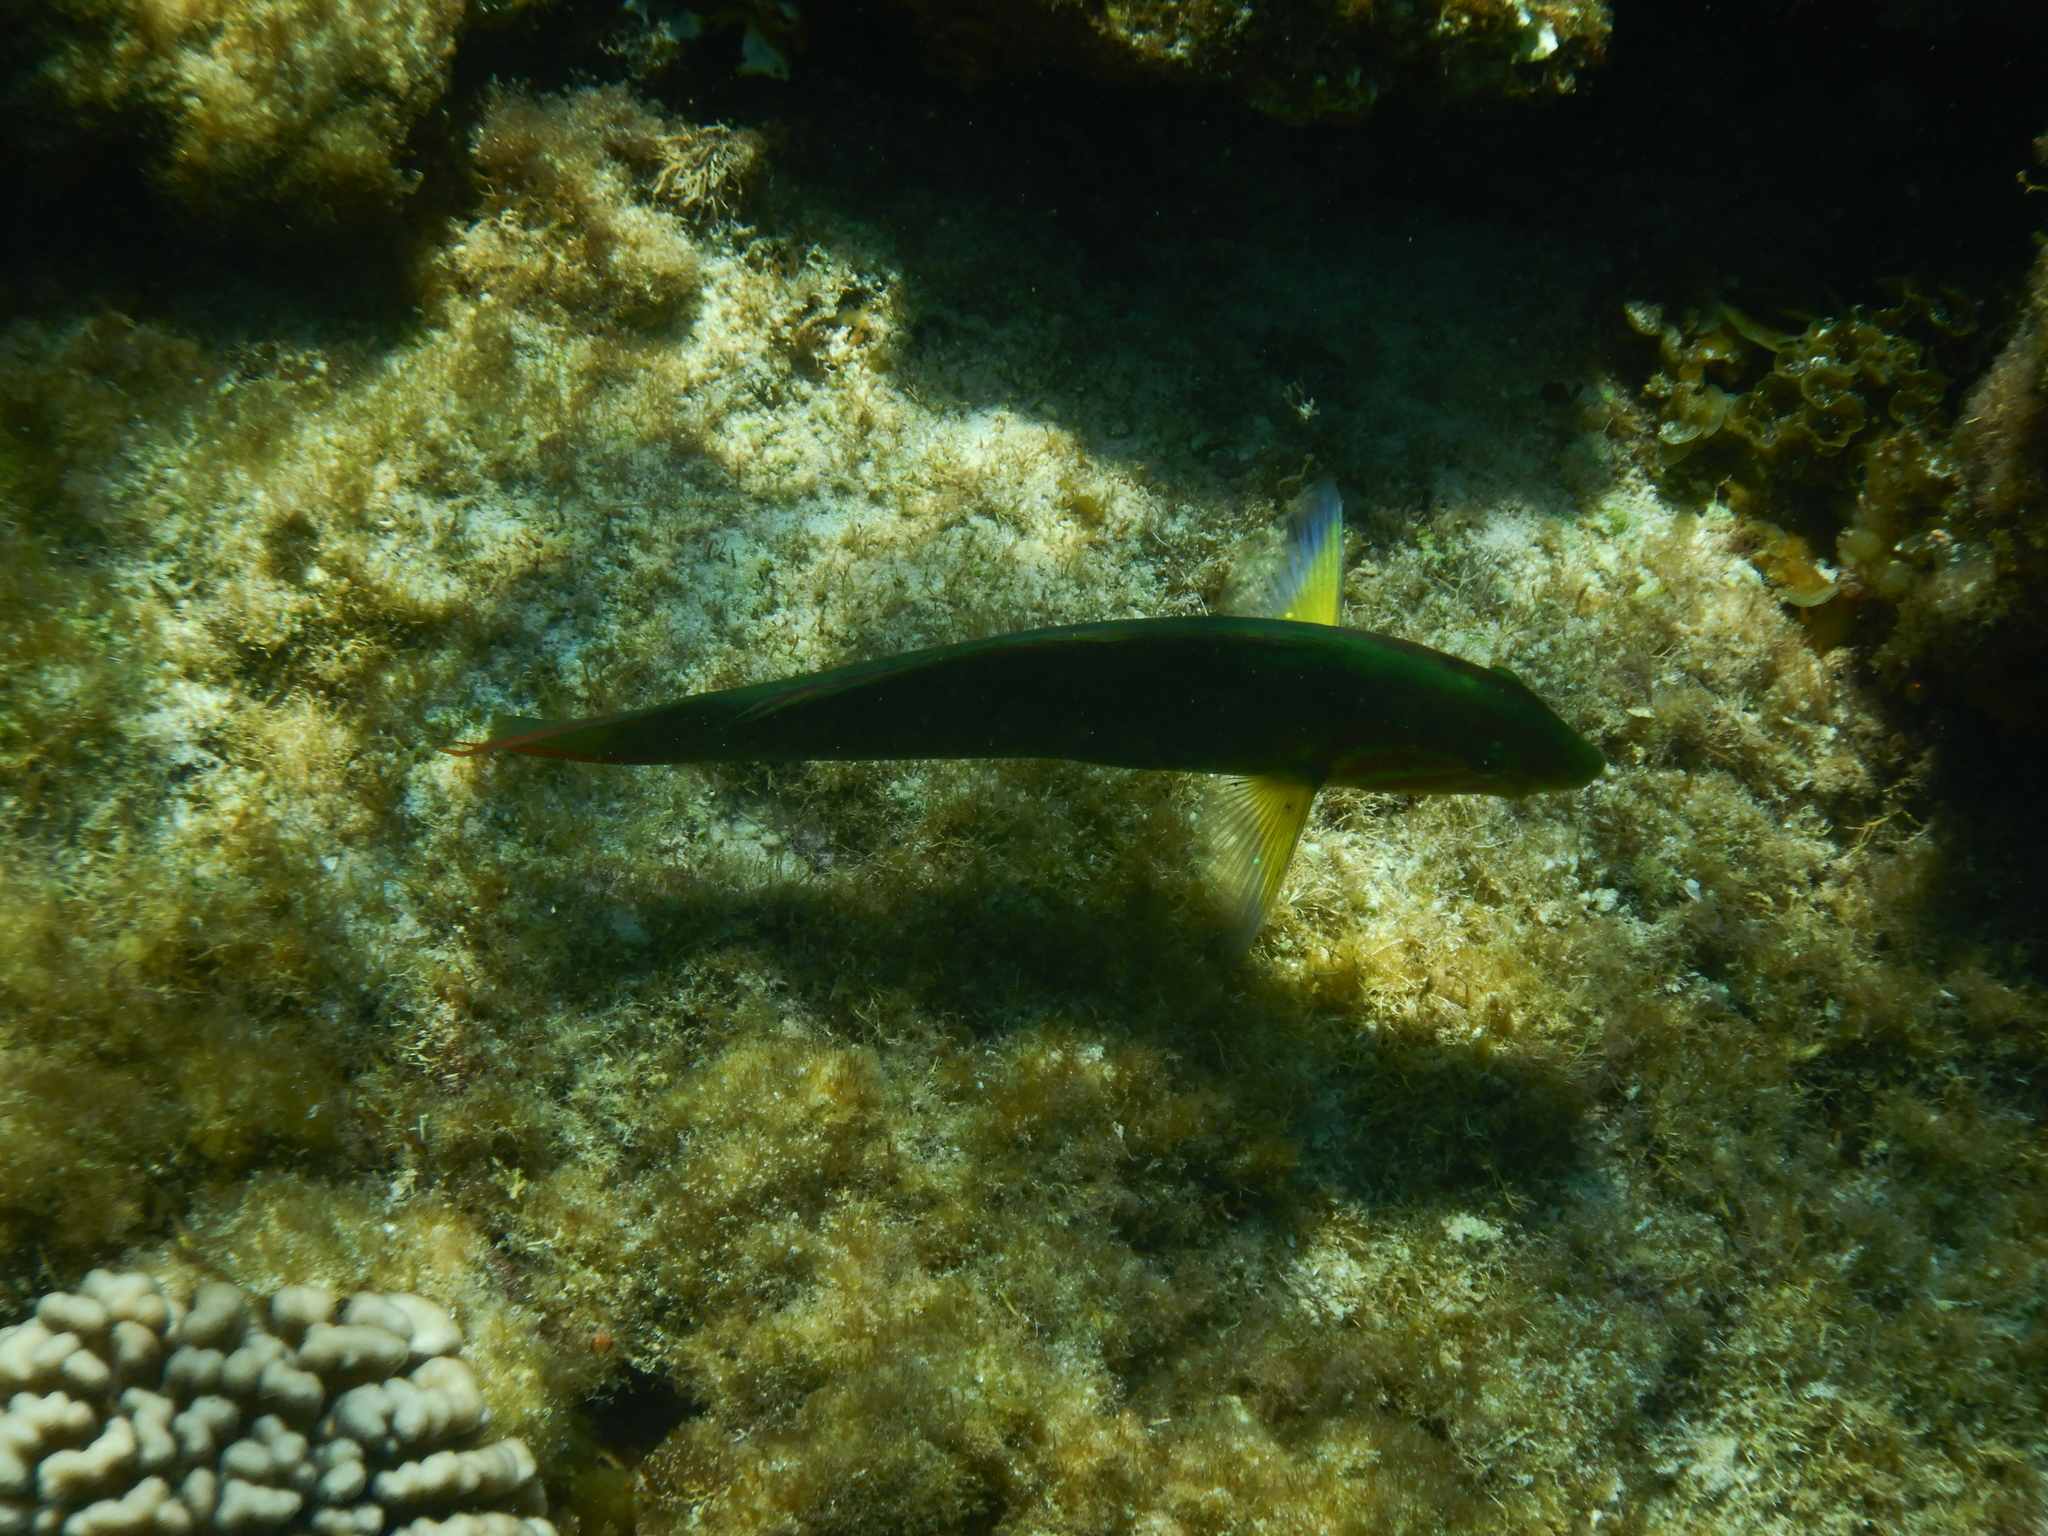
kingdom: Animalia
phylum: Chordata
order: Perciformes
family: Labridae
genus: Thalassoma
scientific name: Thalassoma lutescens
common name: Green moon wrasse
